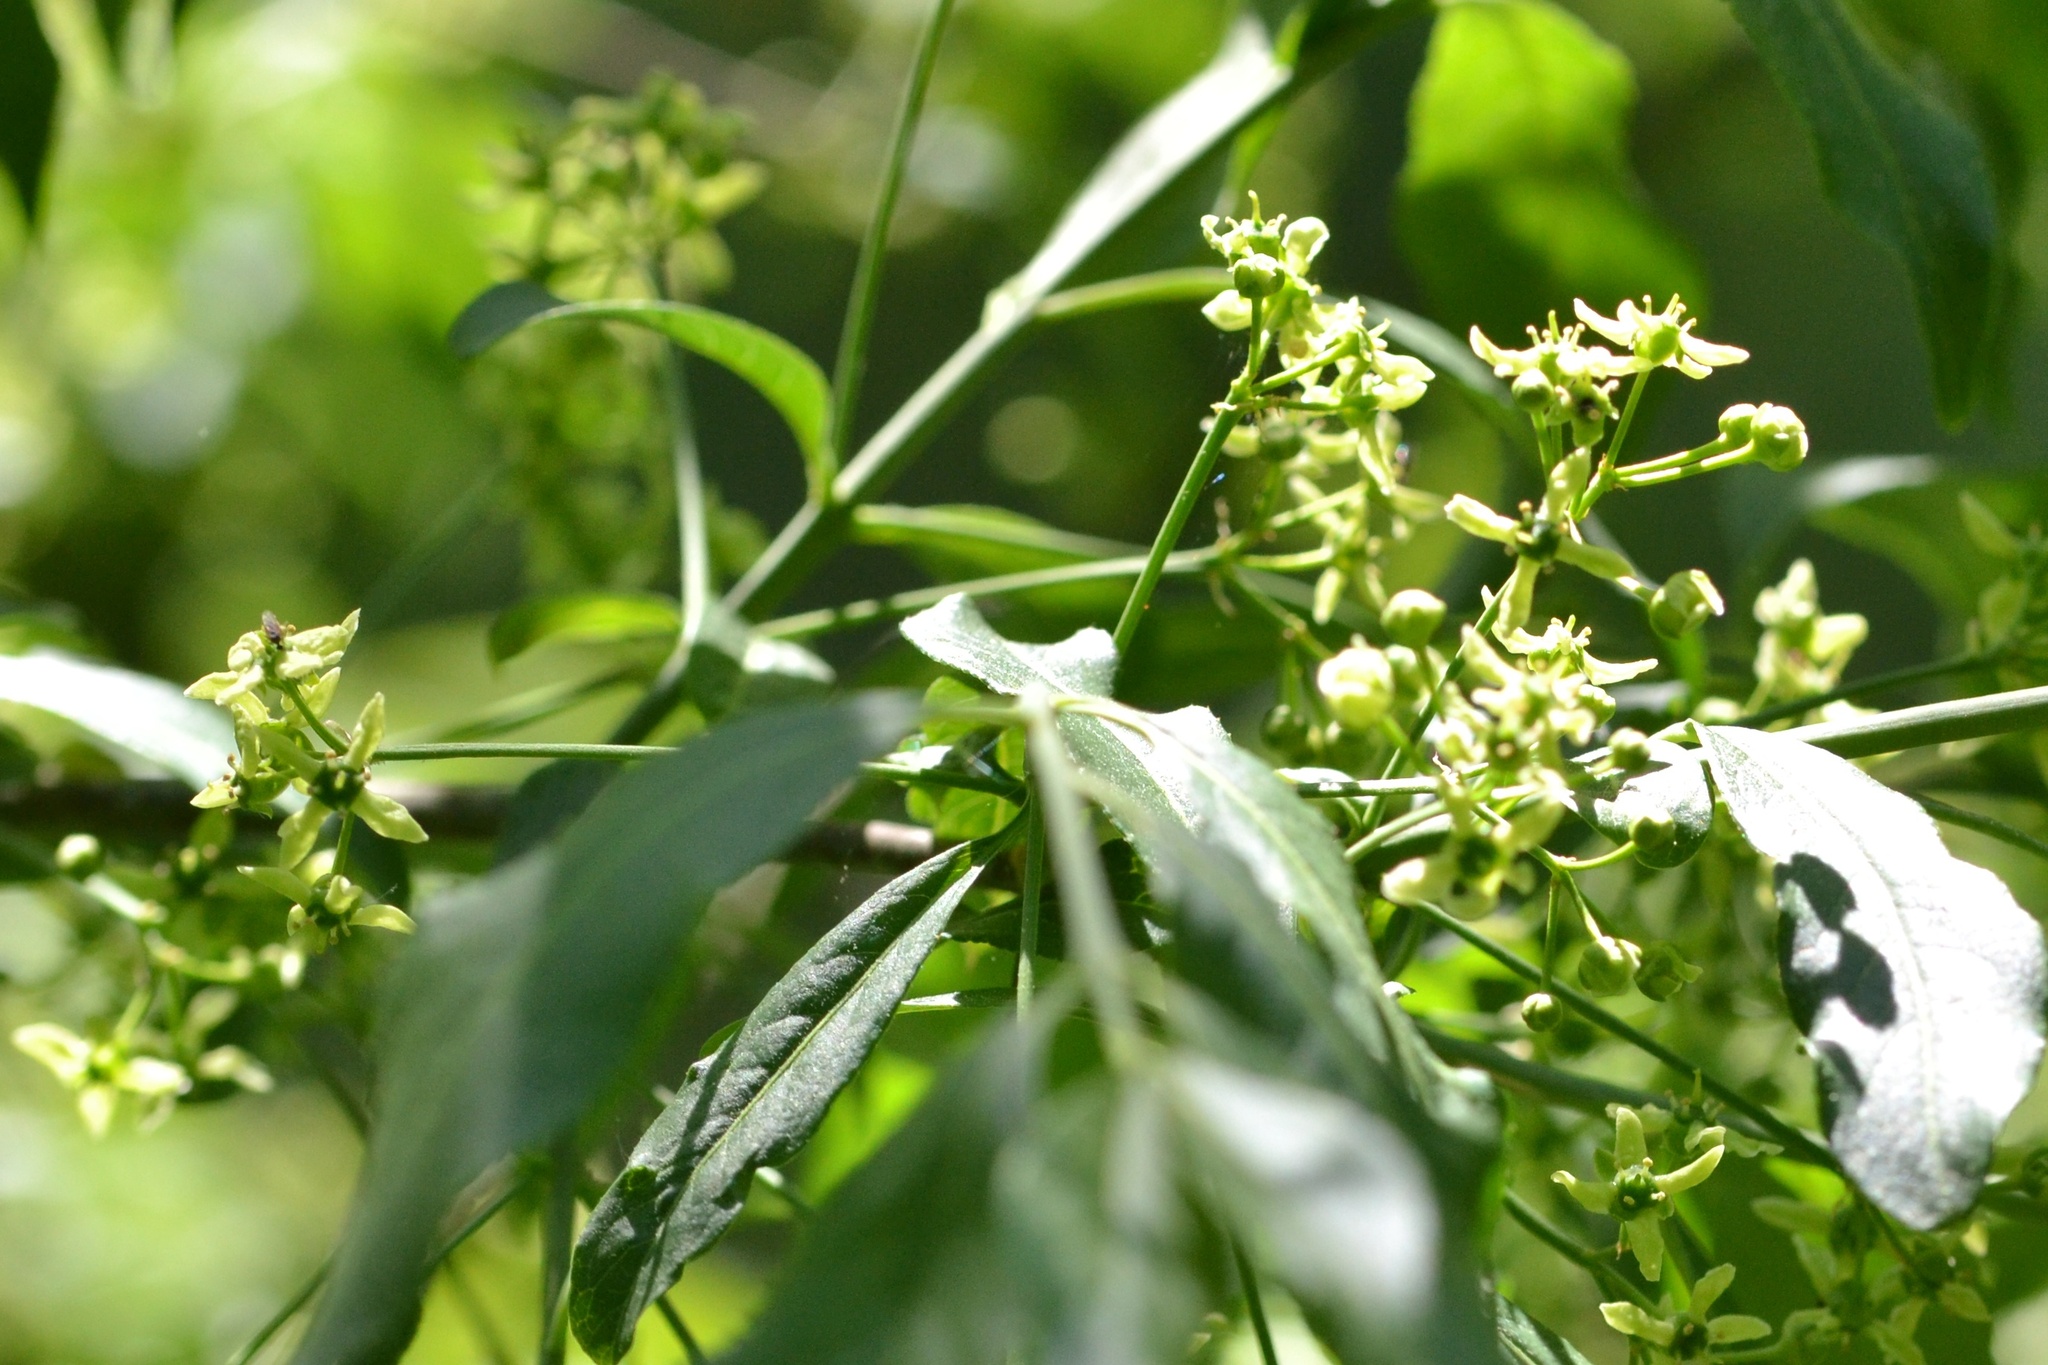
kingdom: Plantae
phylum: Tracheophyta
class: Magnoliopsida
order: Celastrales
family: Celastraceae
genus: Euonymus
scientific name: Euonymus europaeus
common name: Spindle
